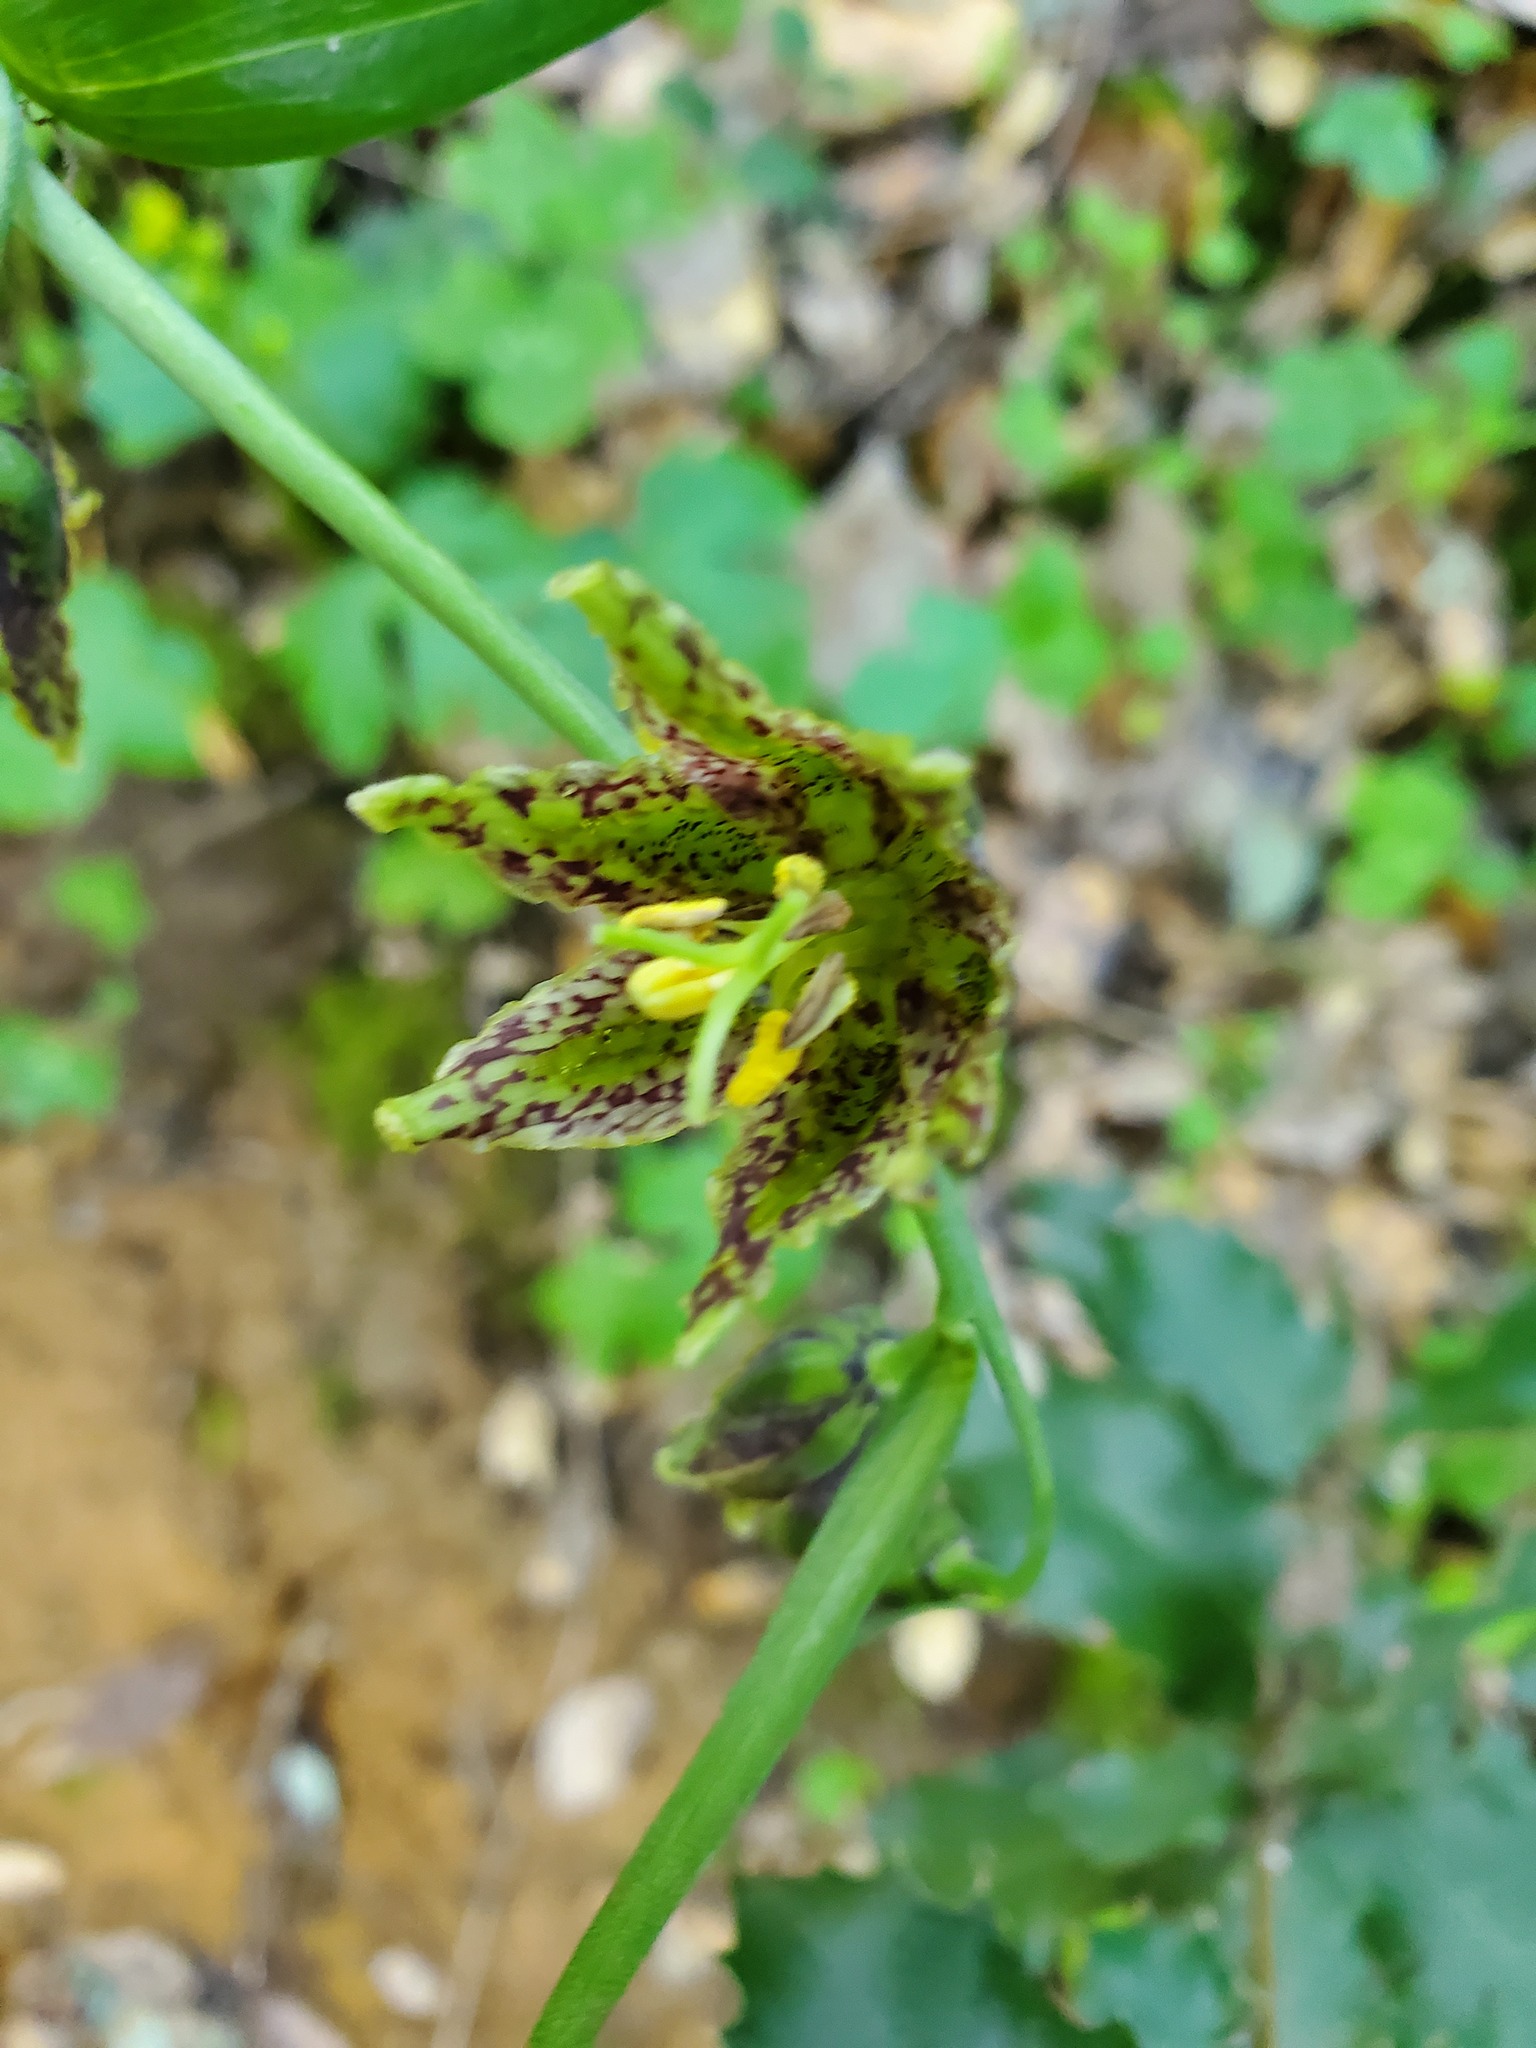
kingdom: Plantae
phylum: Tracheophyta
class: Liliopsida
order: Liliales
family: Liliaceae
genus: Fritillaria
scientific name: Fritillaria affinis
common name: Ojai fritillary
